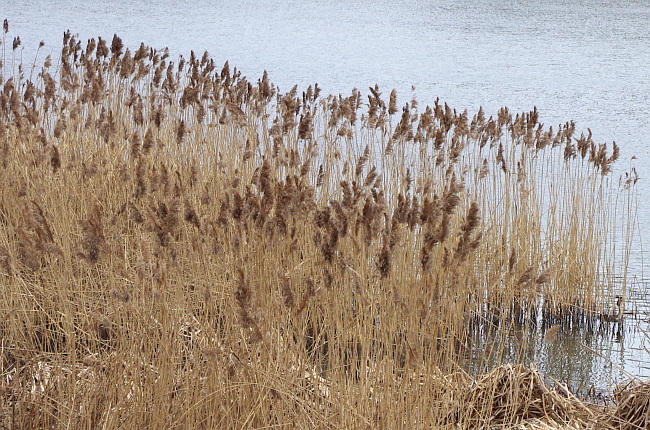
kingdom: Plantae
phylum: Tracheophyta
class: Liliopsida
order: Poales
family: Poaceae
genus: Phragmites
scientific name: Phragmites australis
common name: Common reed
